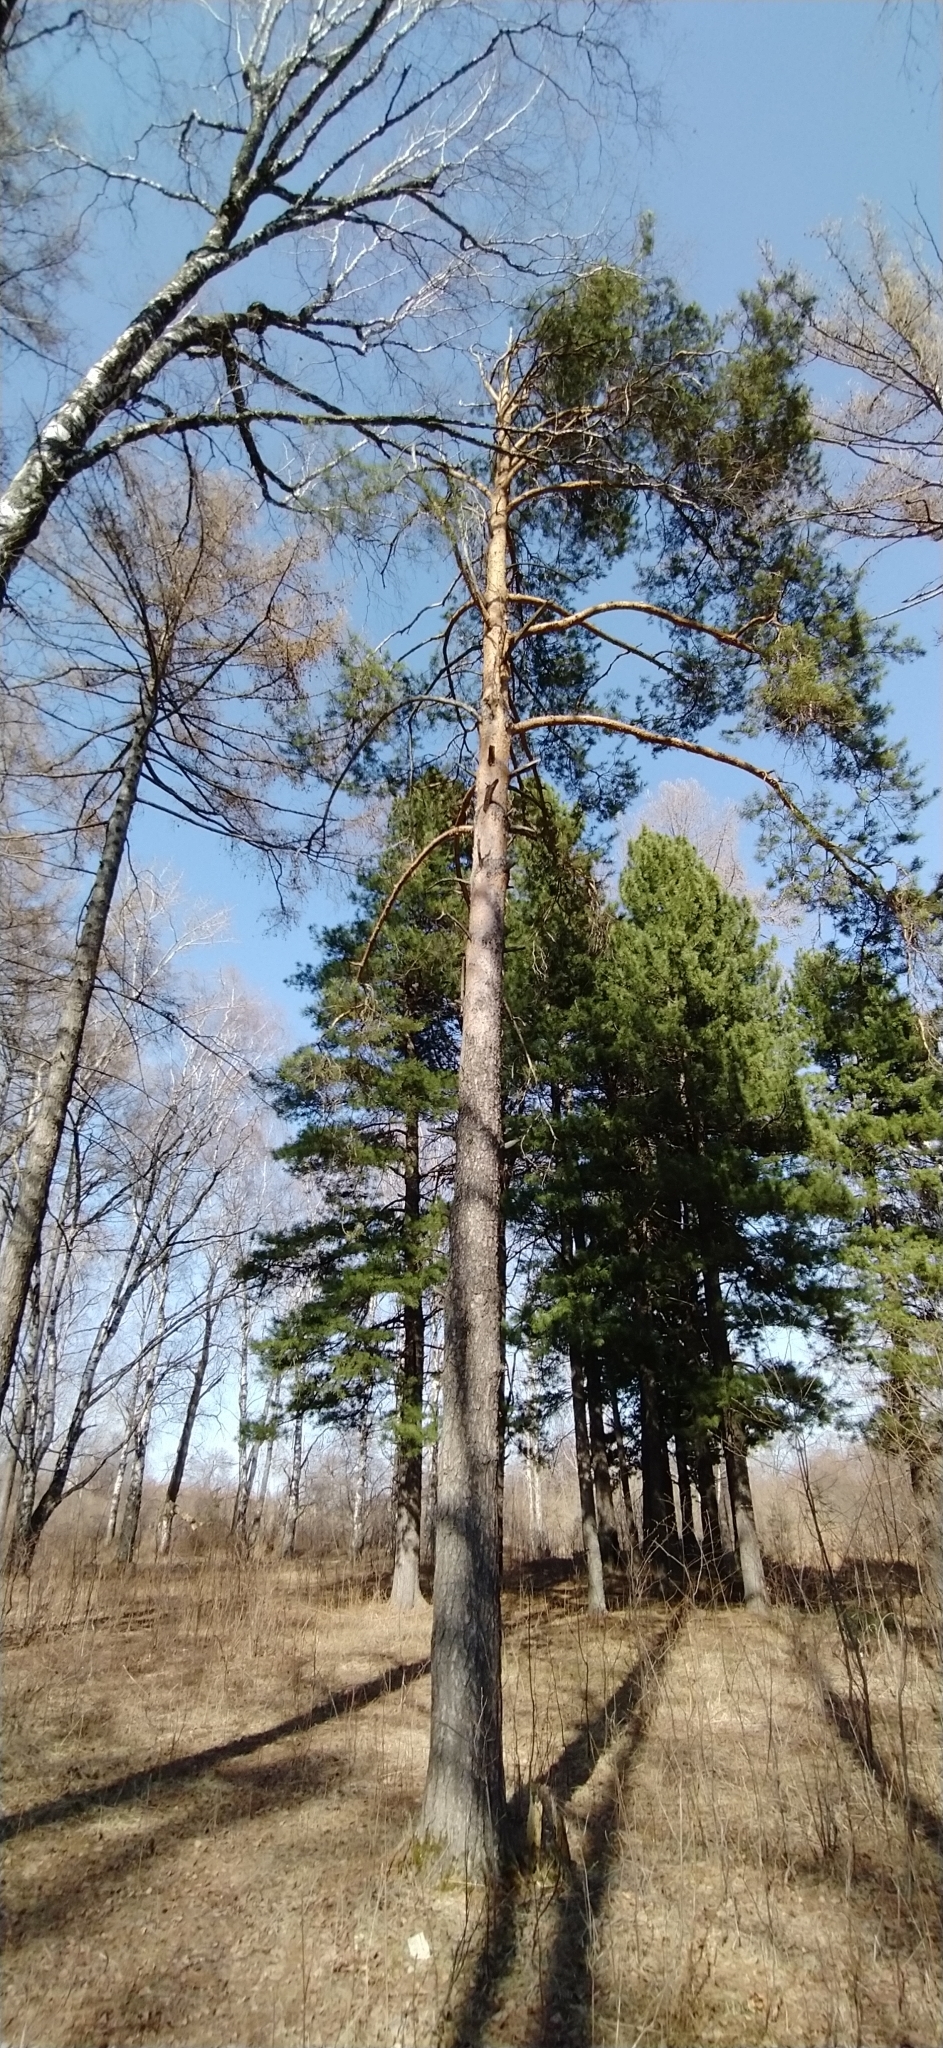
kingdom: Plantae
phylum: Tracheophyta
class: Pinopsida
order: Pinales
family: Pinaceae
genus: Pinus
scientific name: Pinus sylvestris
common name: Scots pine
